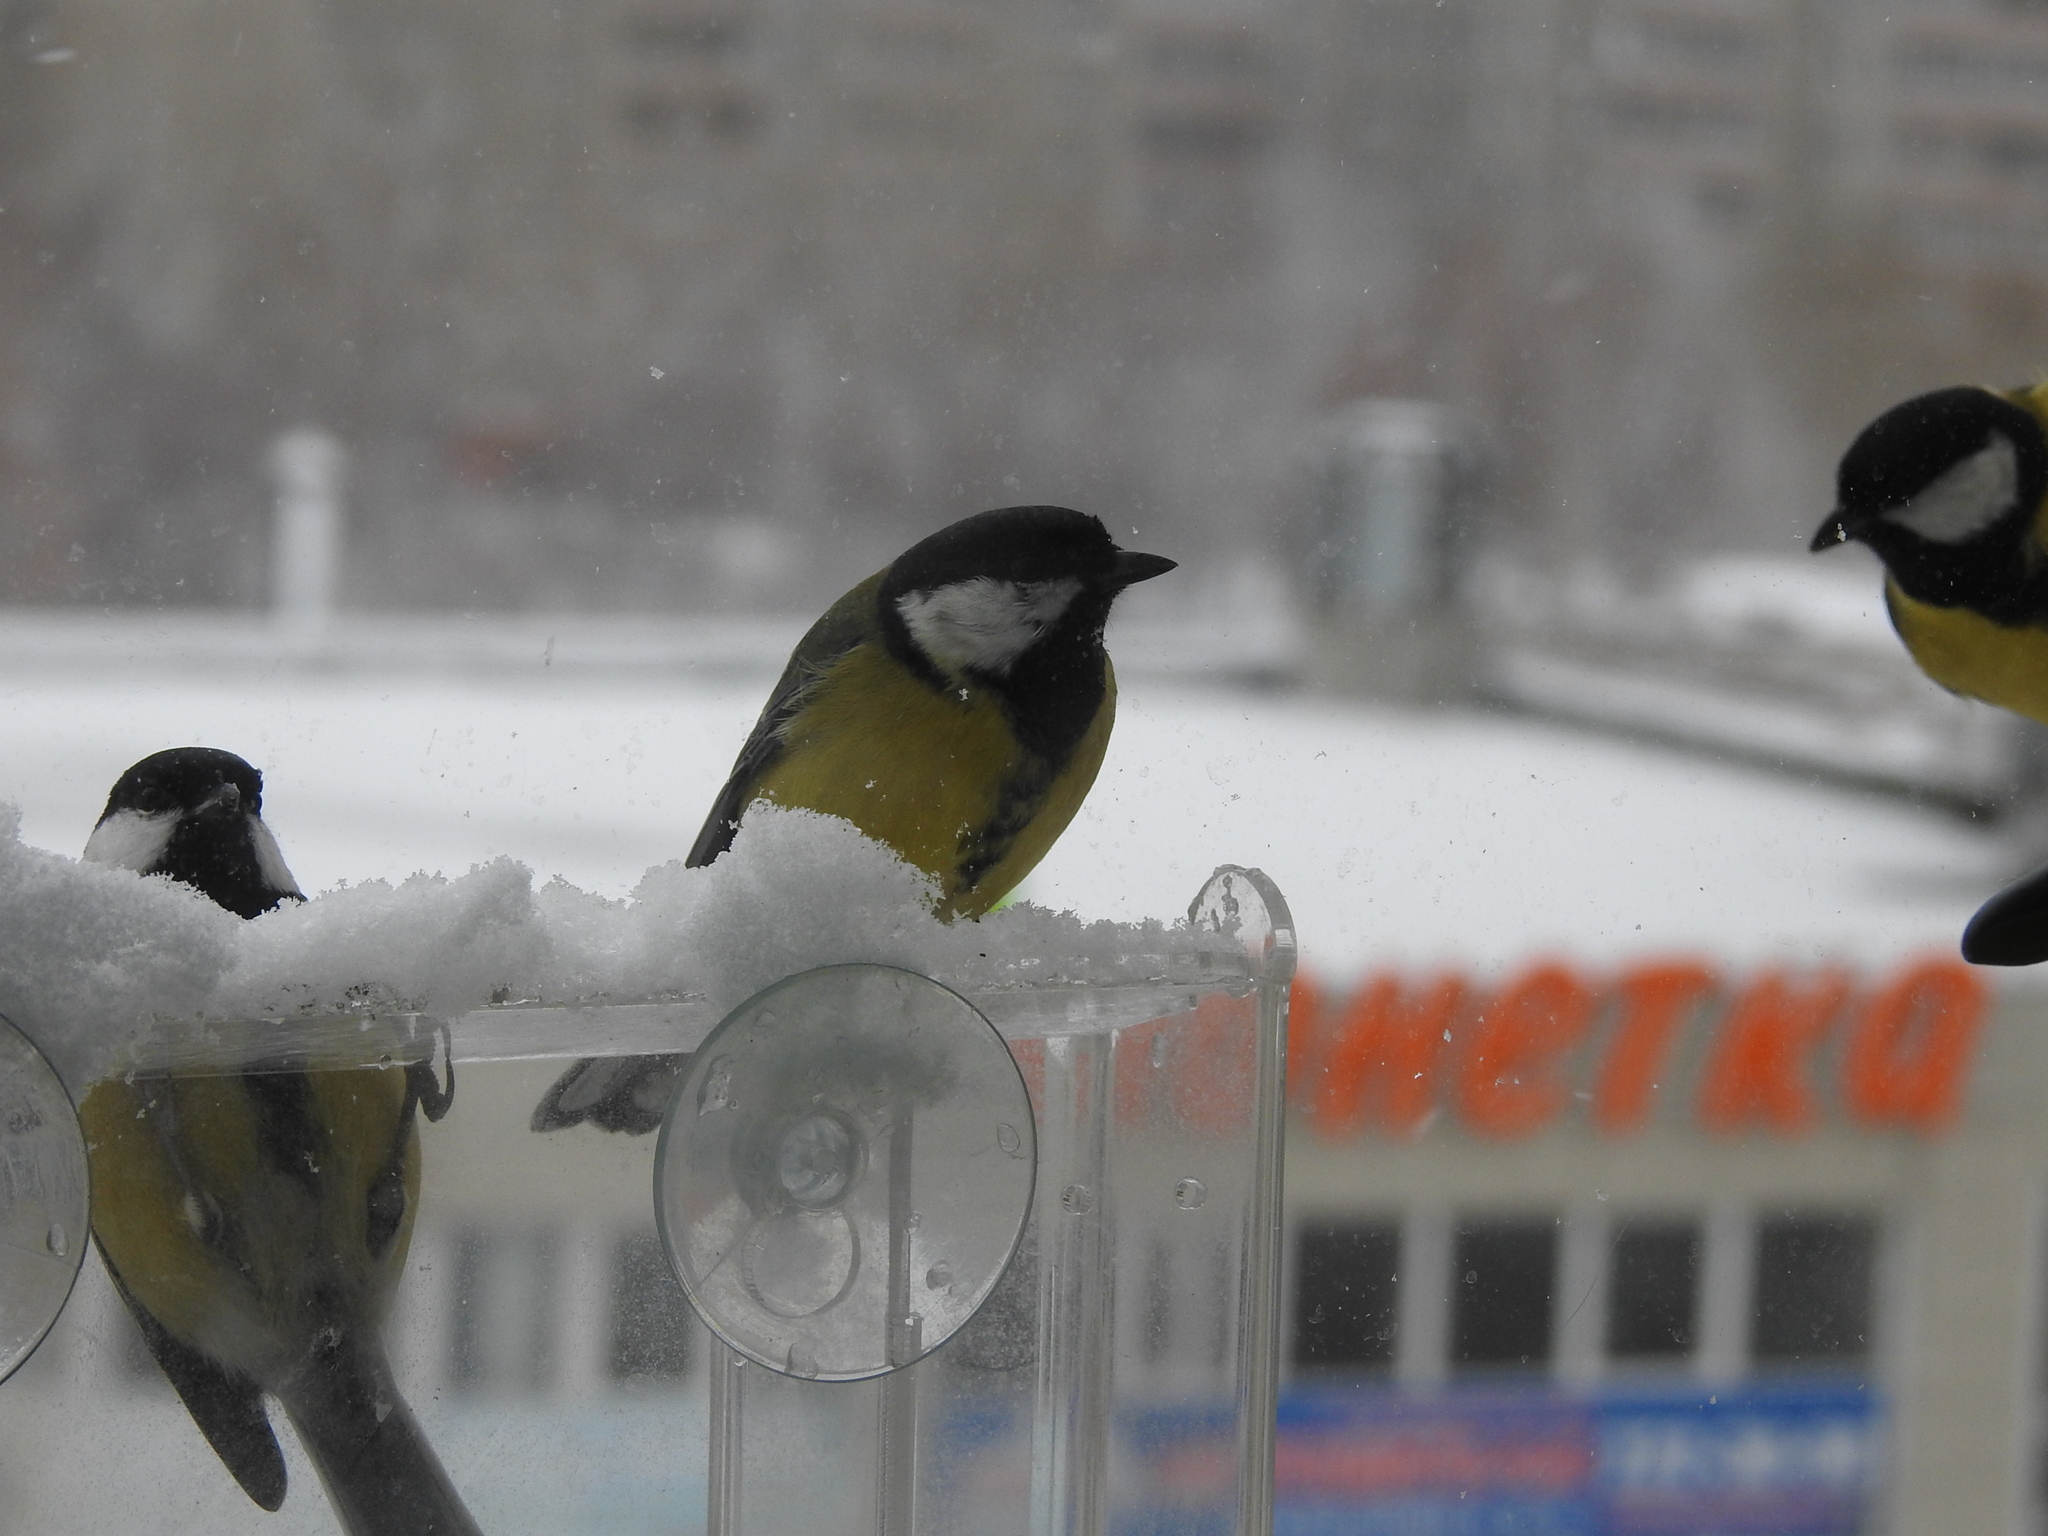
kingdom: Animalia
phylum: Chordata
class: Aves
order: Passeriformes
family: Paridae
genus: Parus
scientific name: Parus major
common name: Great tit
